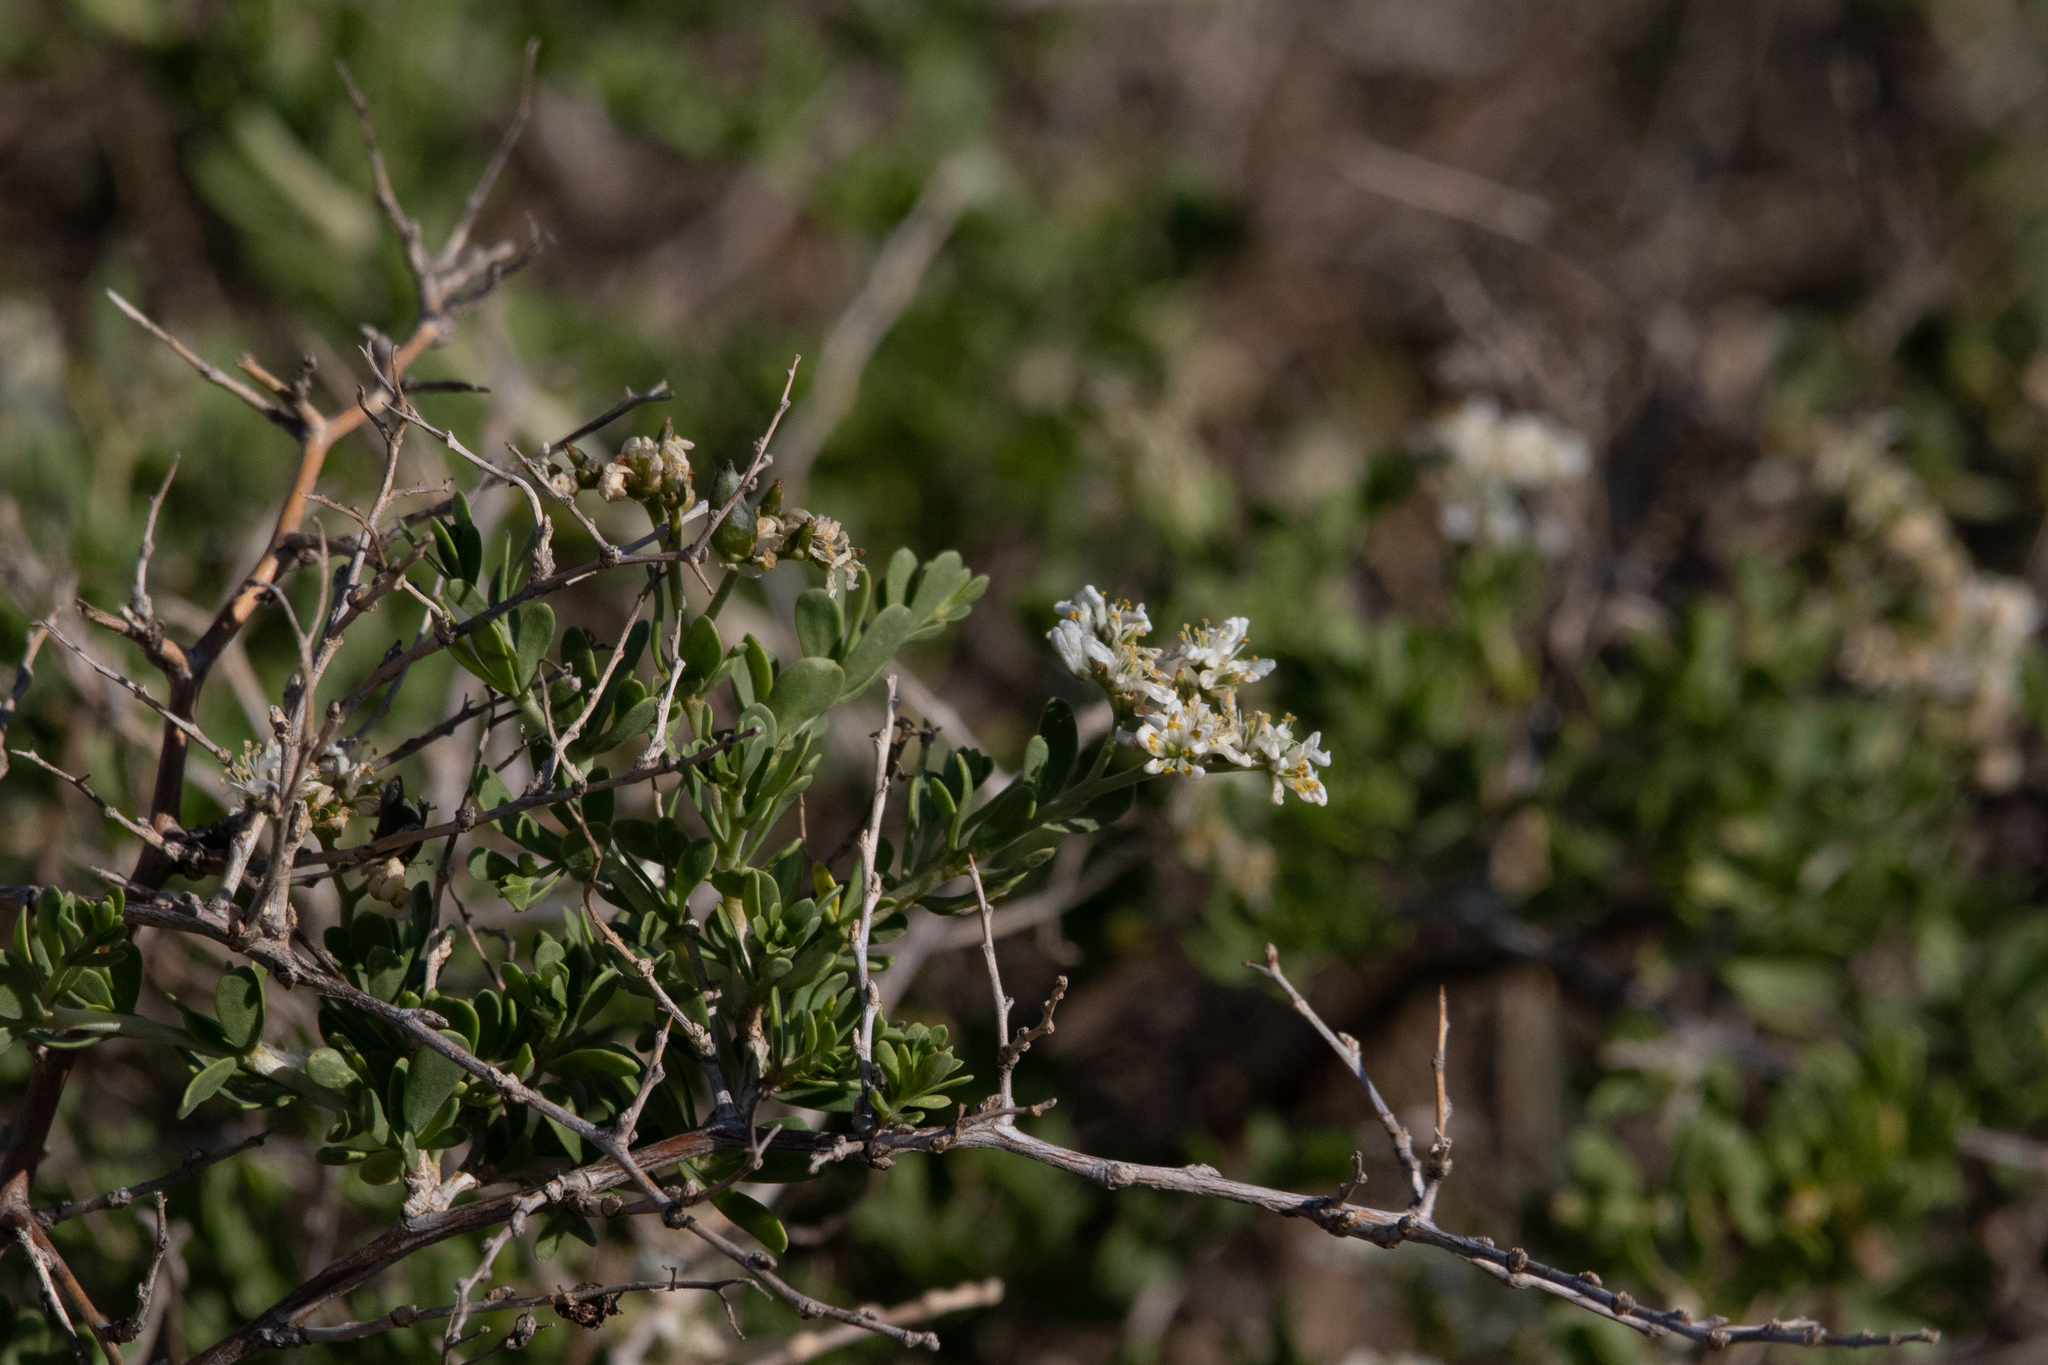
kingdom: Plantae
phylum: Tracheophyta
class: Magnoliopsida
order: Sapindales
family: Nitrariaceae
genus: Nitraria
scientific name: Nitraria sibirica
